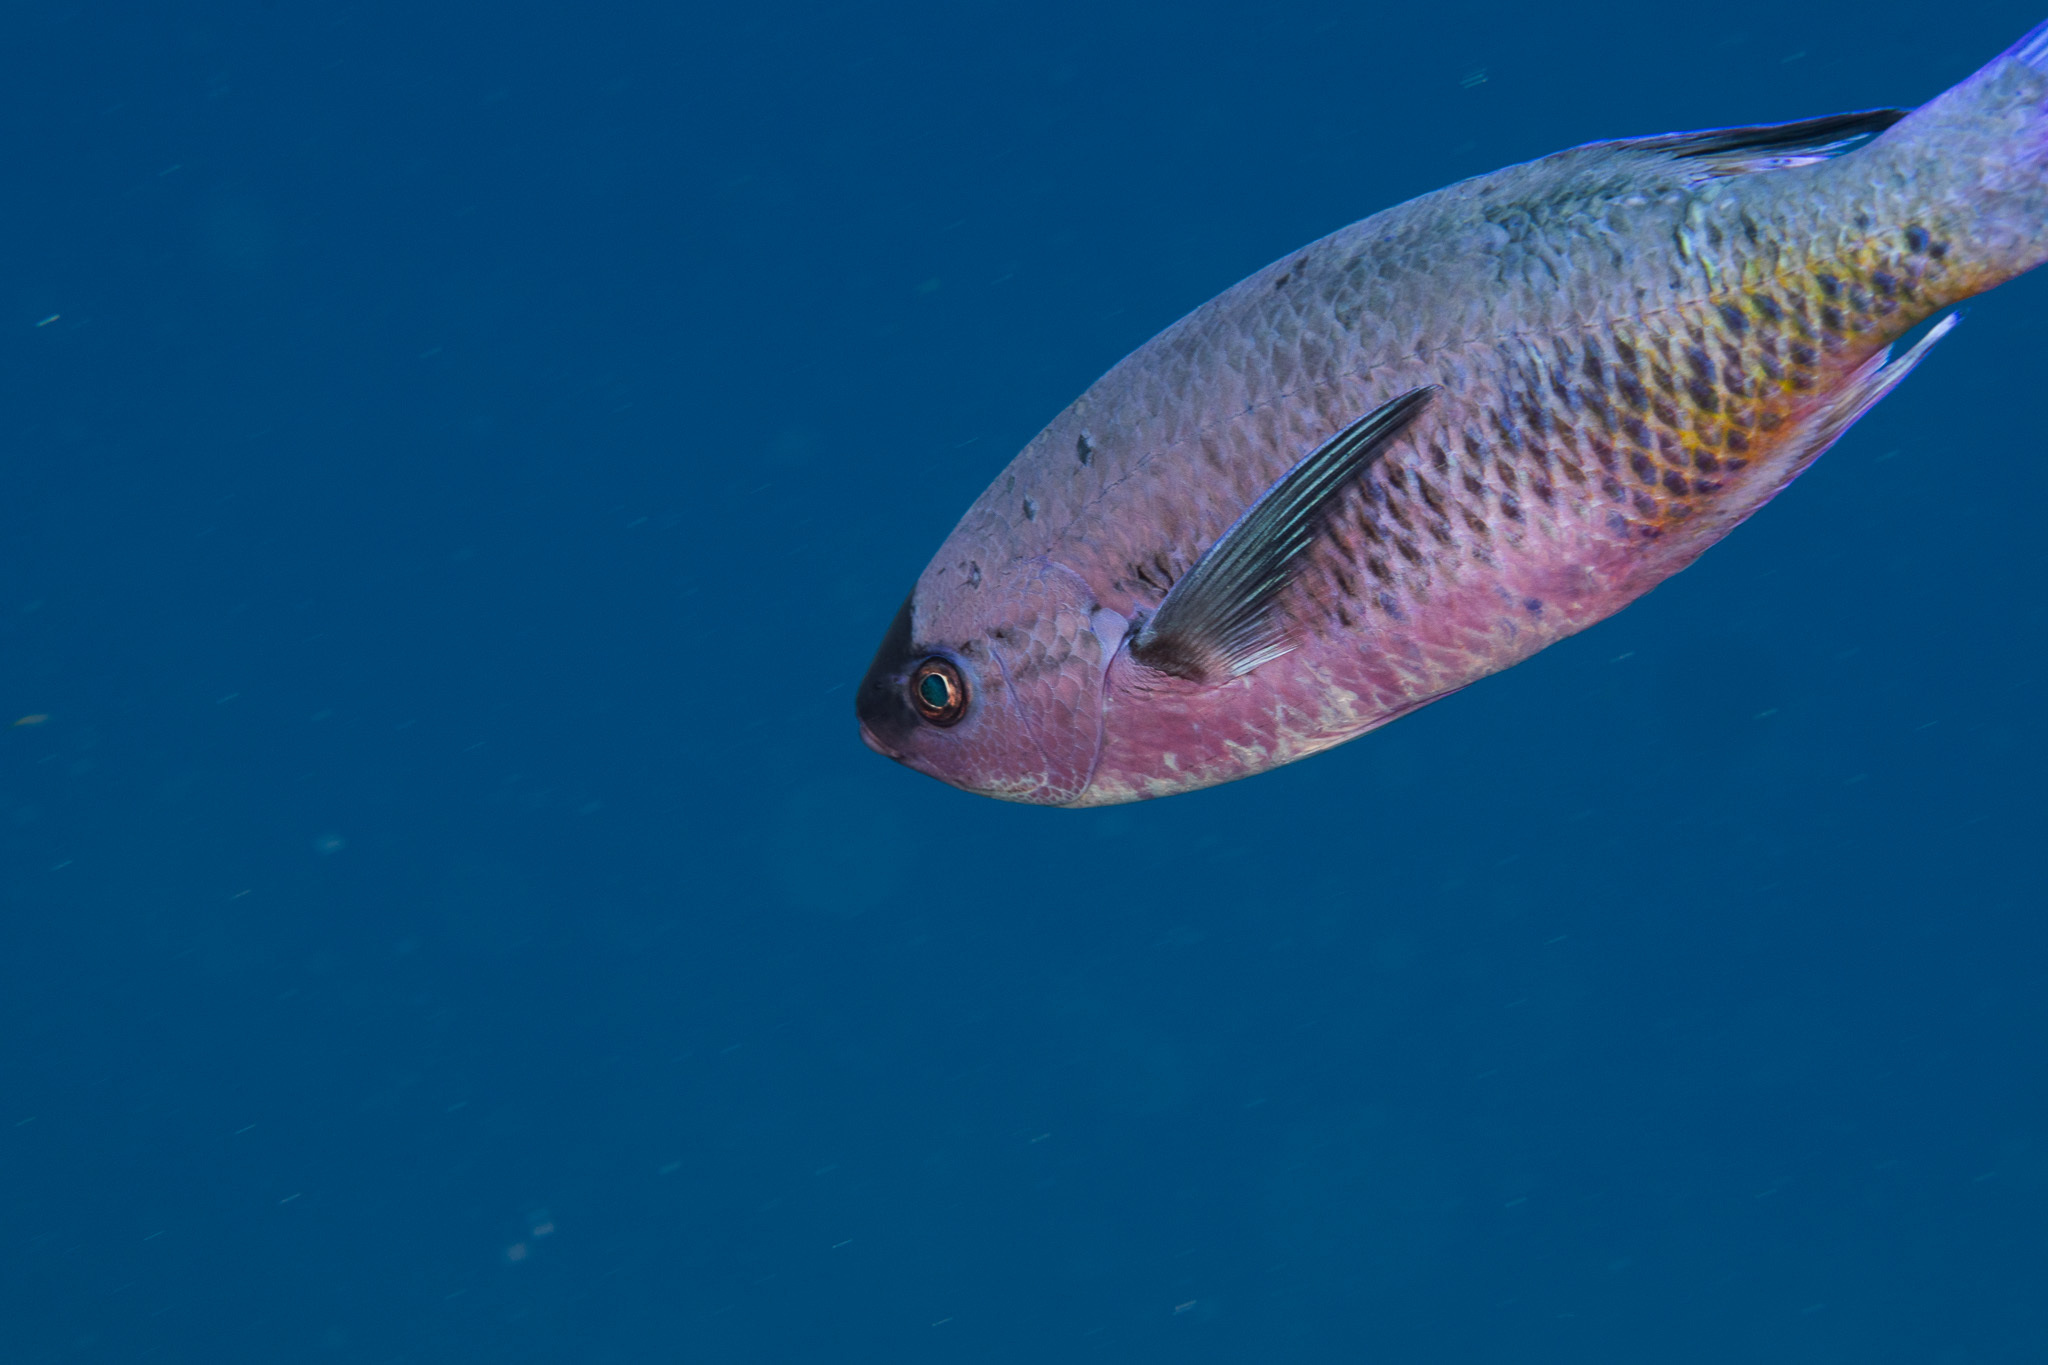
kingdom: Animalia
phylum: Chordata
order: Perciformes
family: Labridae
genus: Bodianus
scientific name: Bodianus
